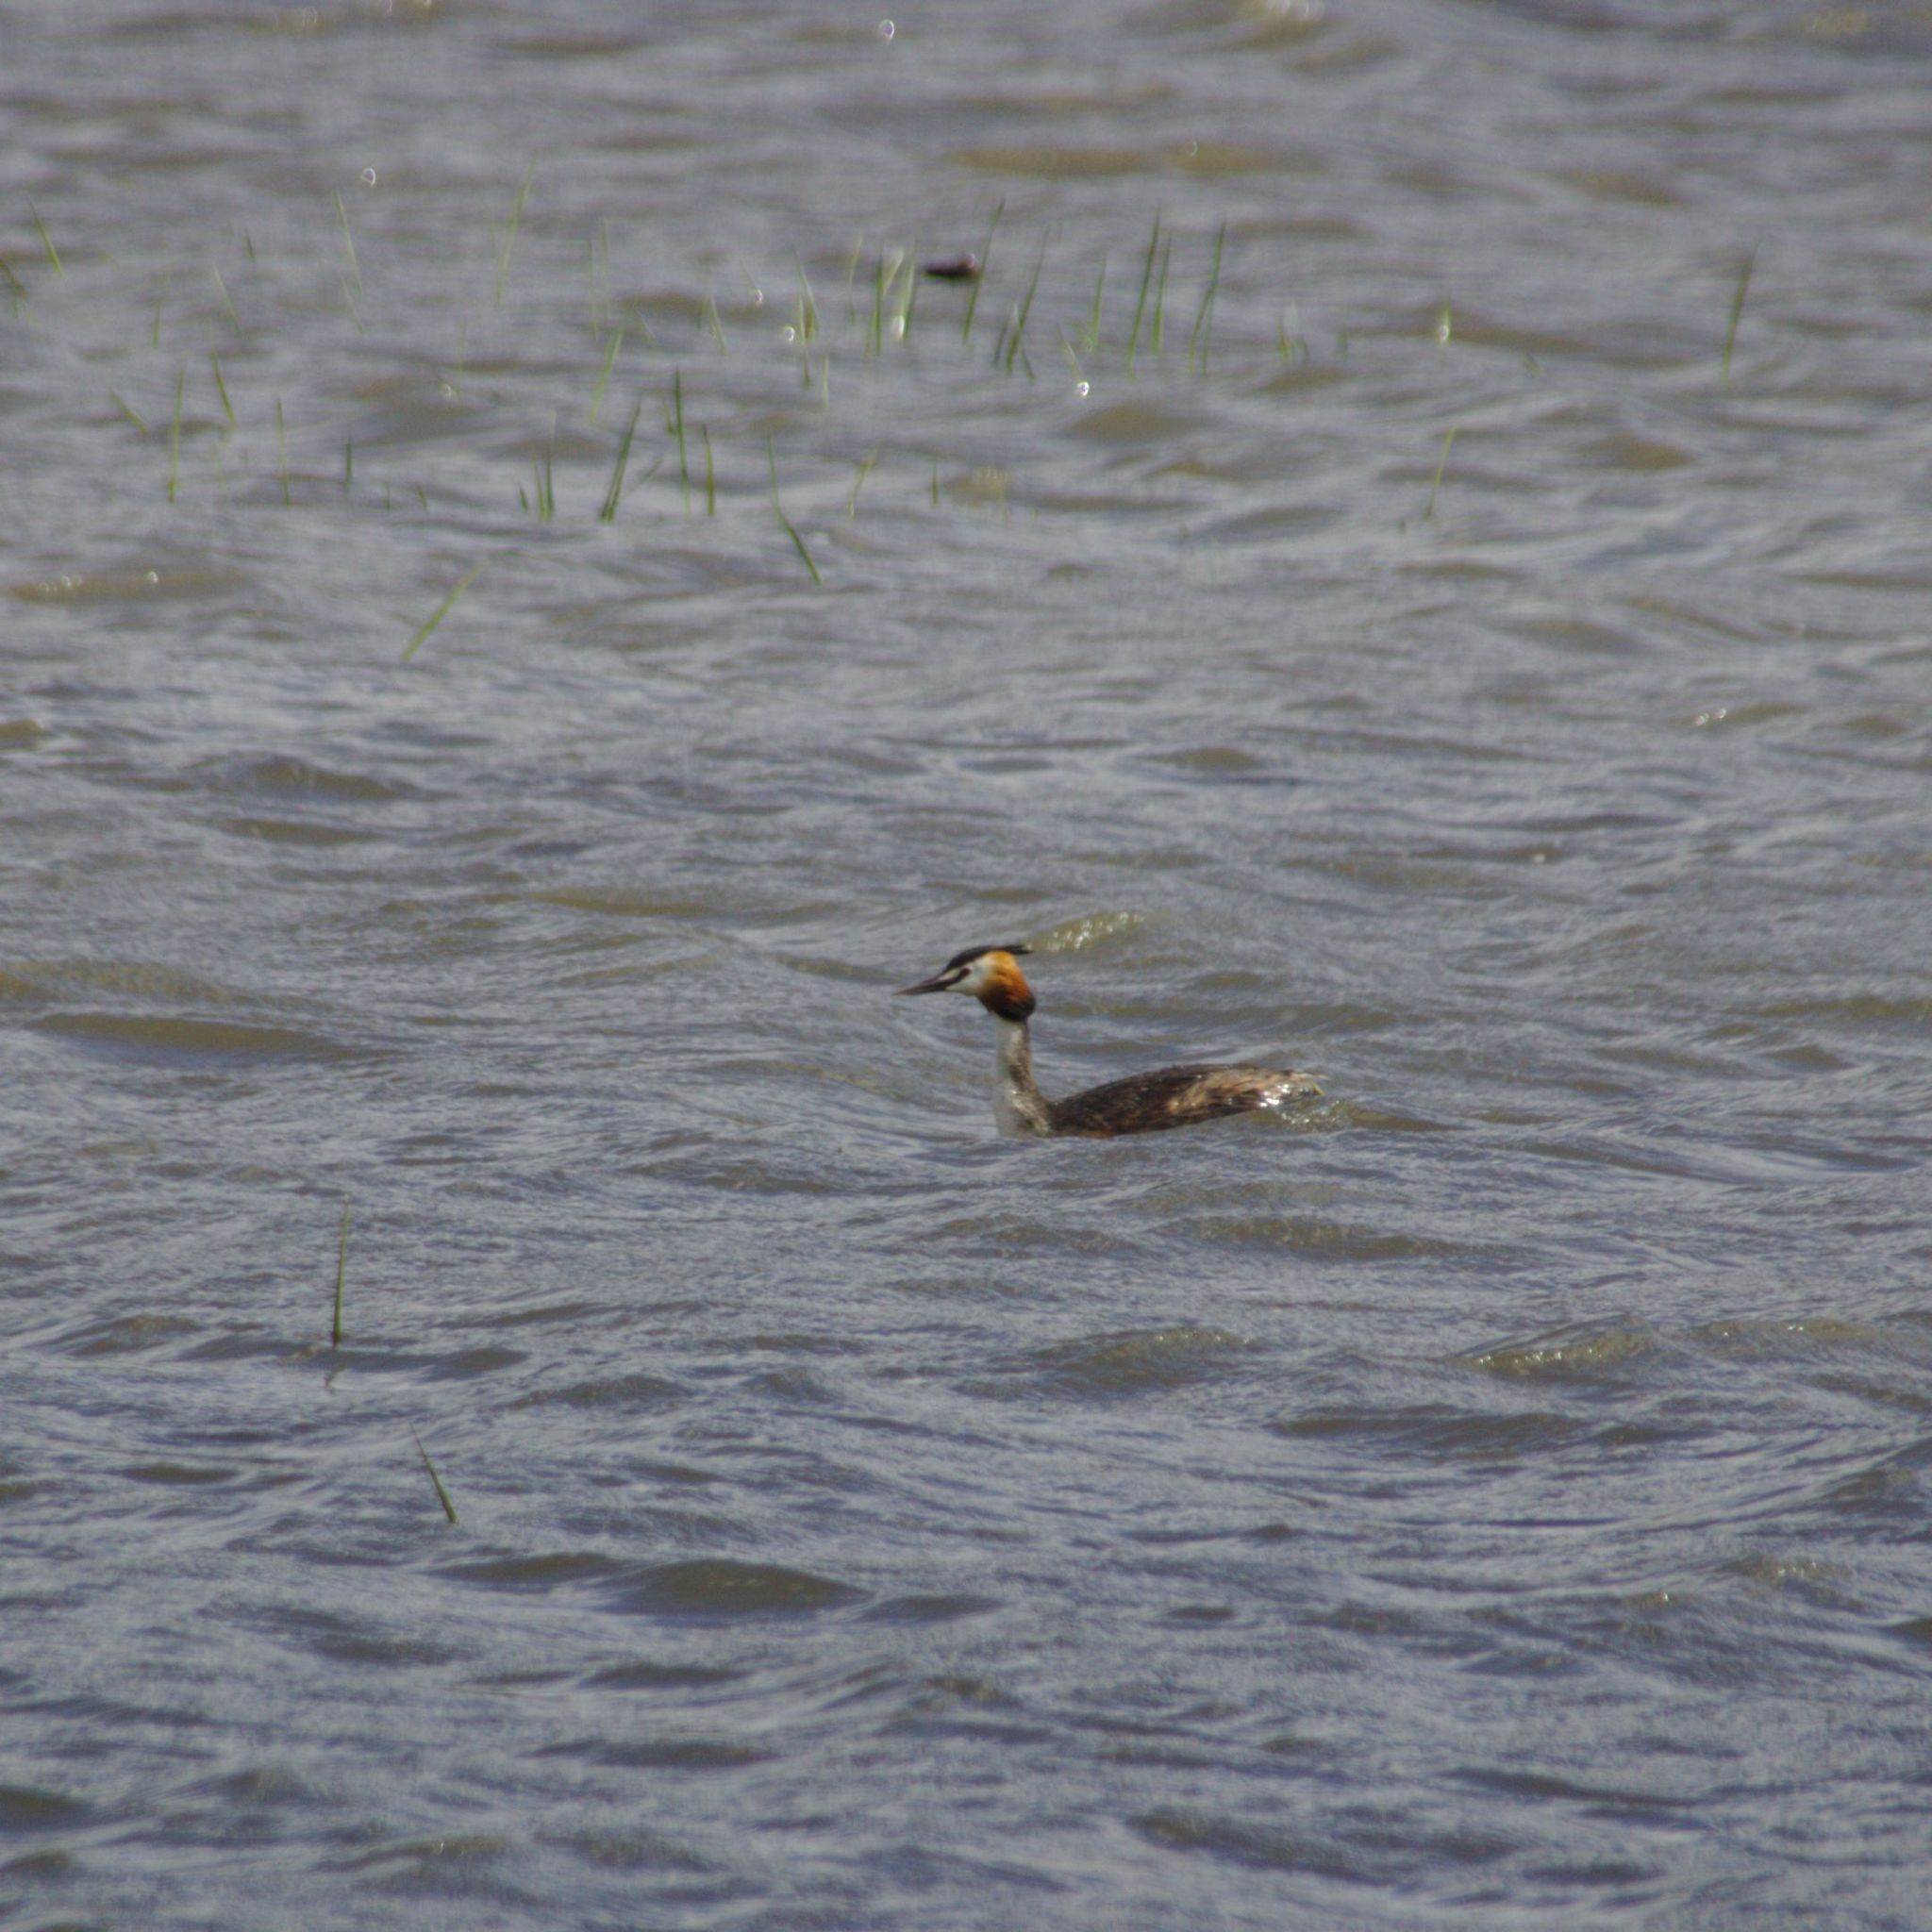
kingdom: Animalia
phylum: Chordata
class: Aves
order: Podicipediformes
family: Podicipedidae
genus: Podiceps
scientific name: Podiceps cristatus
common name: Great crested grebe
